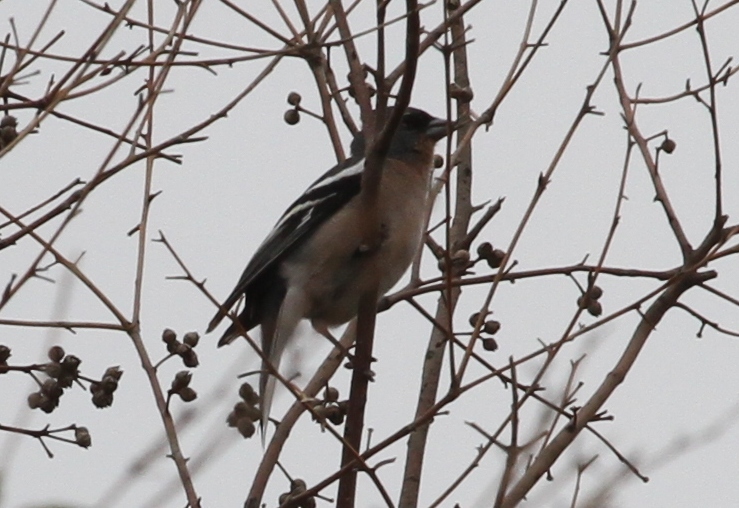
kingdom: Animalia
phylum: Chordata
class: Aves
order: Passeriformes
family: Fringillidae
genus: Fringilla
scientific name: Fringilla spodiogenys
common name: African chaffinch
